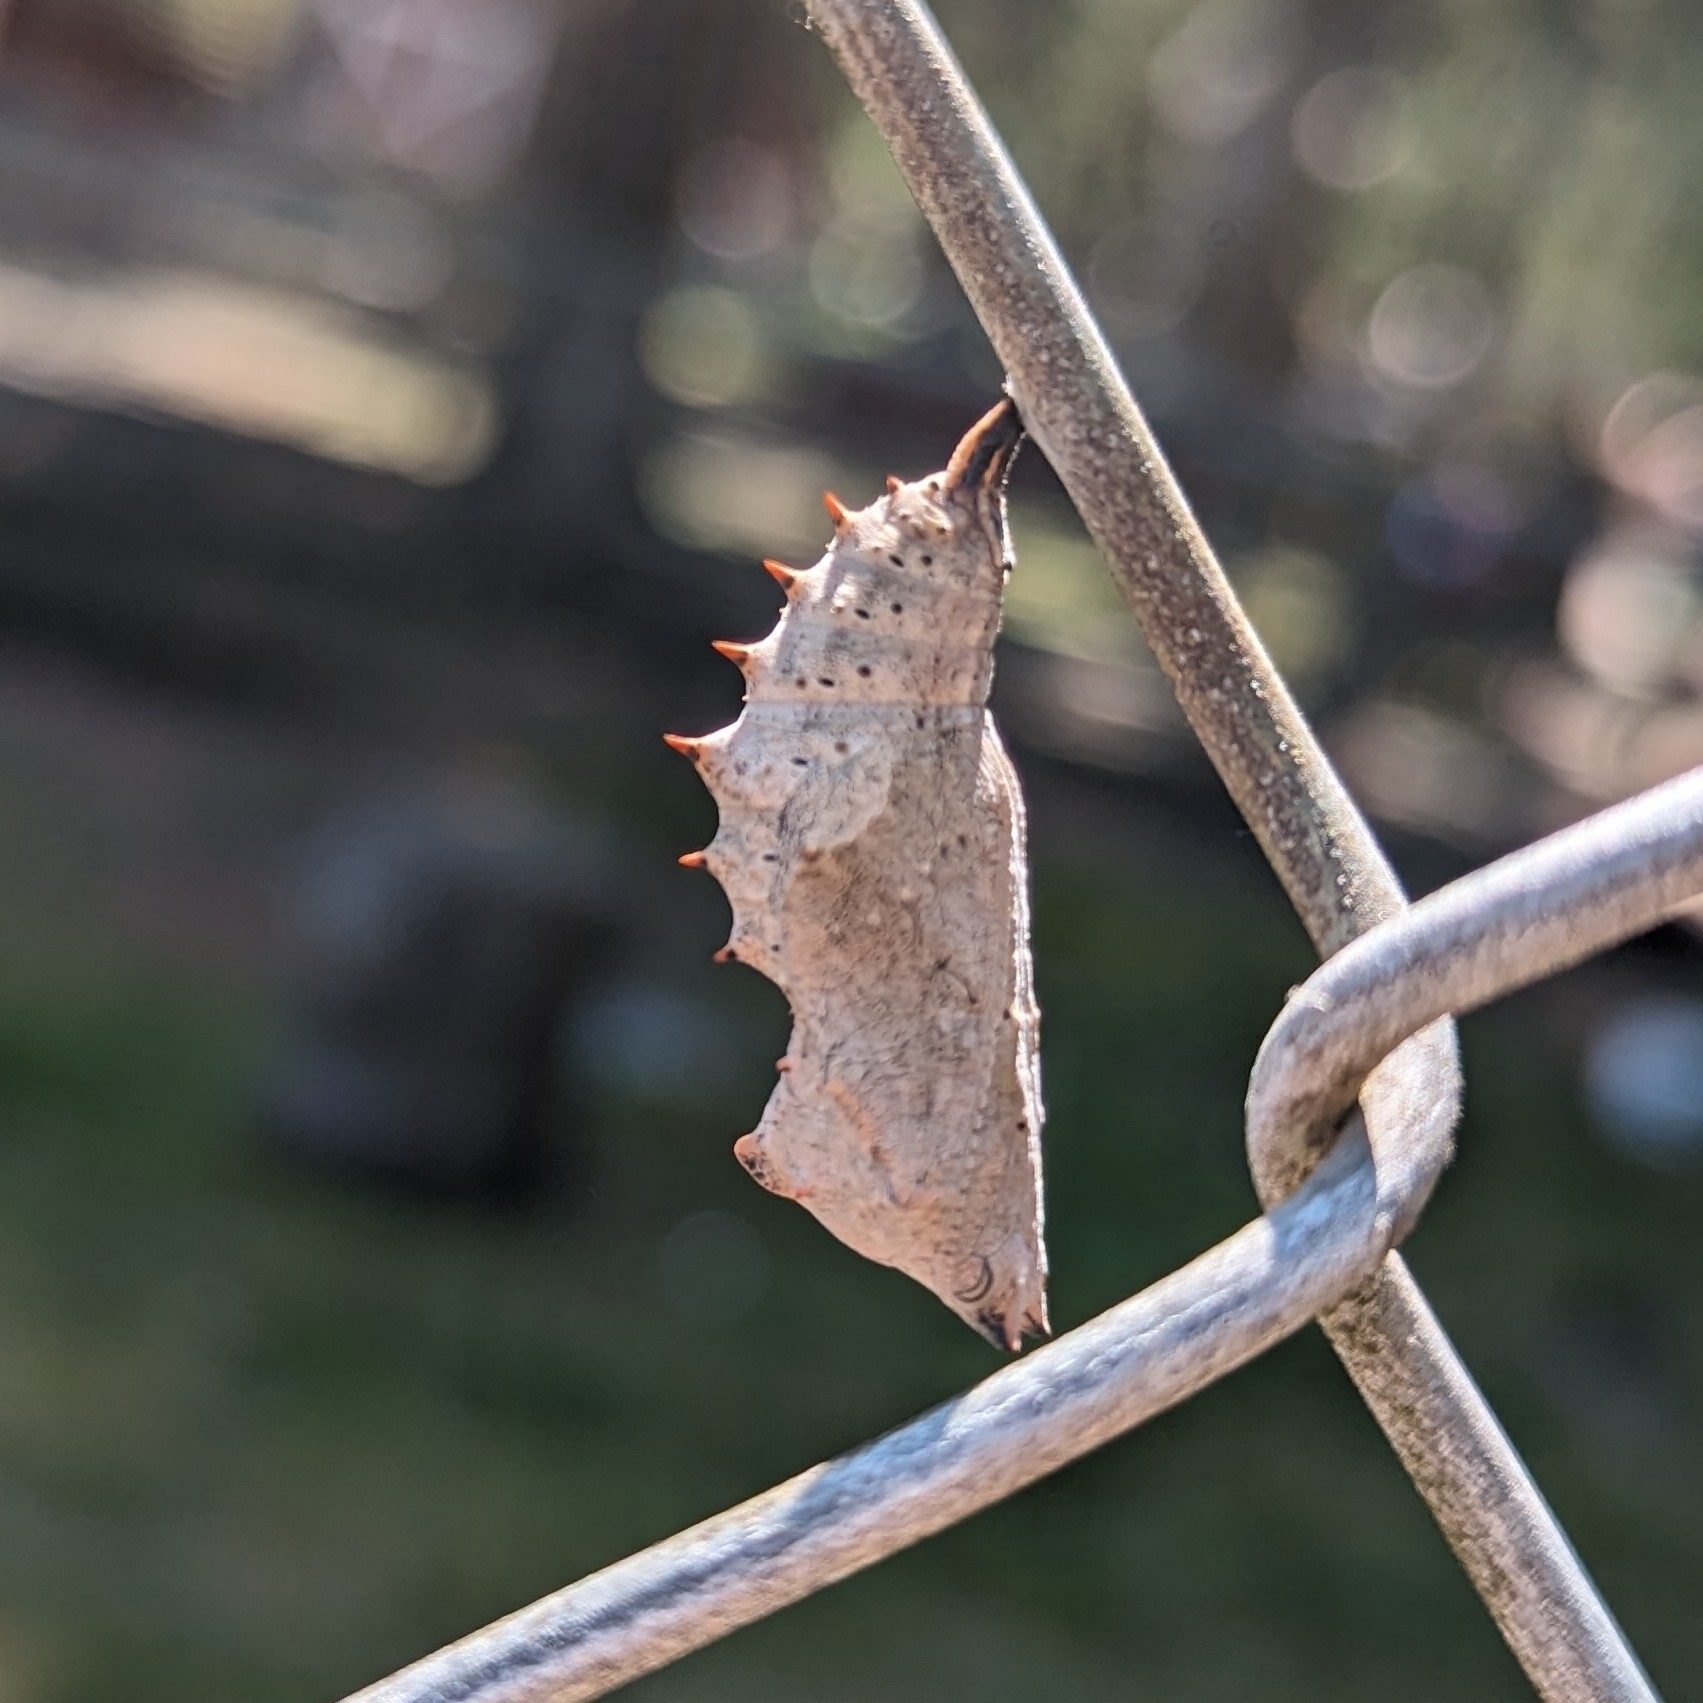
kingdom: Animalia
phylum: Arthropoda
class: Insecta
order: Lepidoptera
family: Nymphalidae
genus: Nymphalis
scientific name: Nymphalis antiopa
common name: Camberwell beauty
